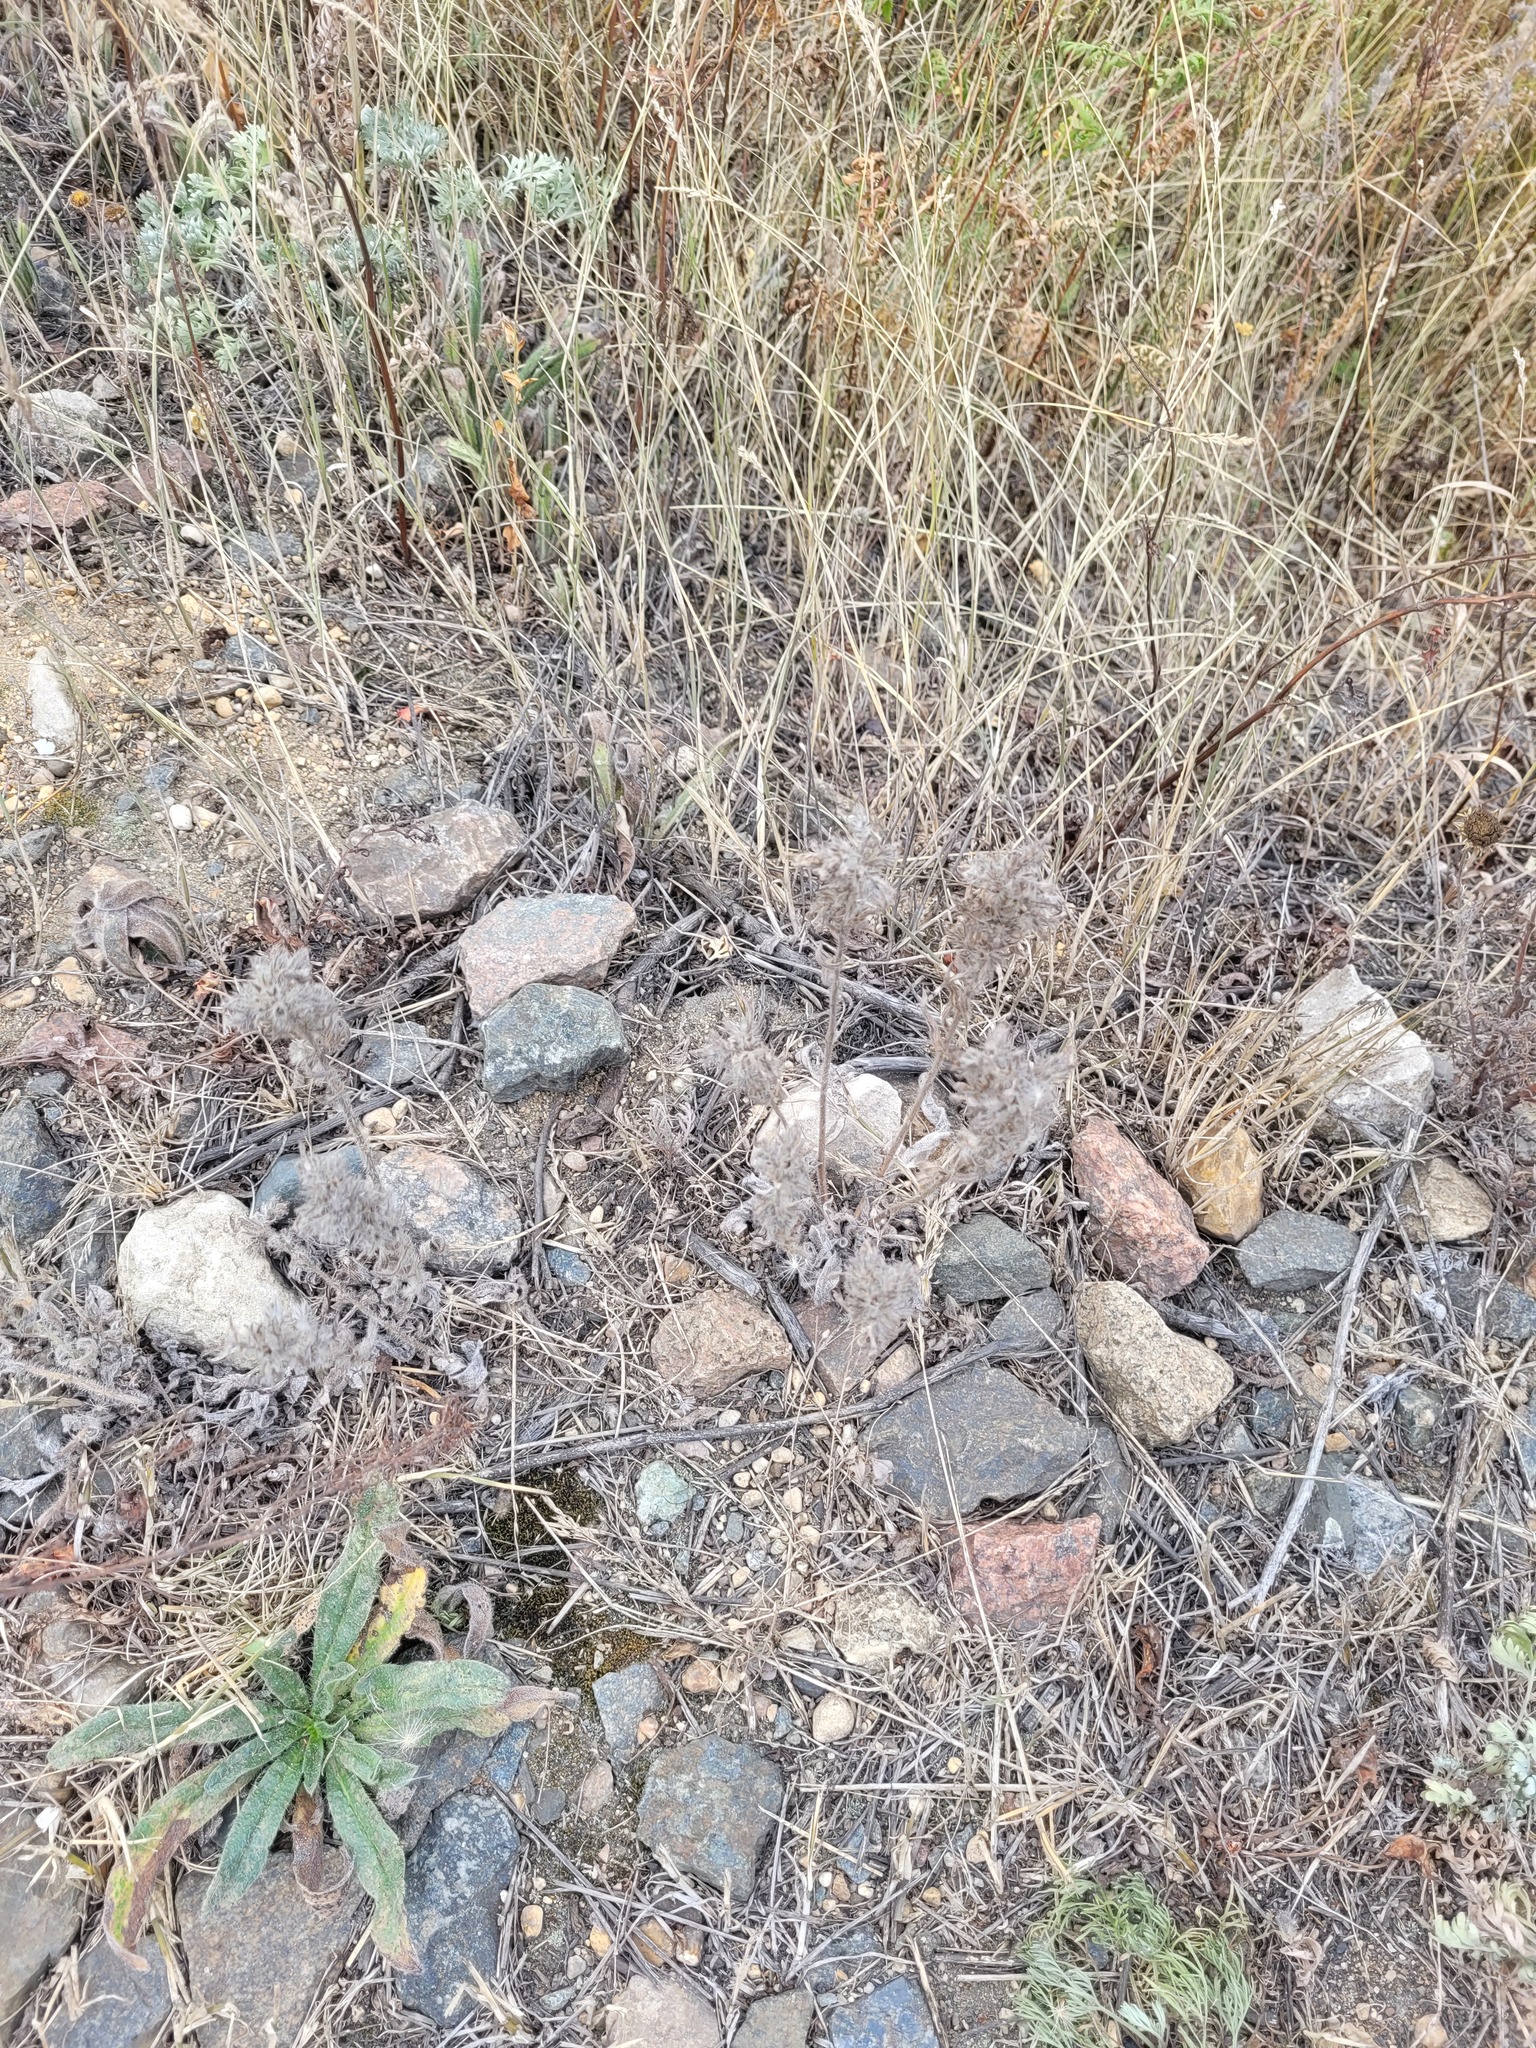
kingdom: Plantae
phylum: Tracheophyta
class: Magnoliopsida
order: Boraginales
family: Boraginaceae
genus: Echium
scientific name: Echium vulgare
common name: Common viper's bugloss
